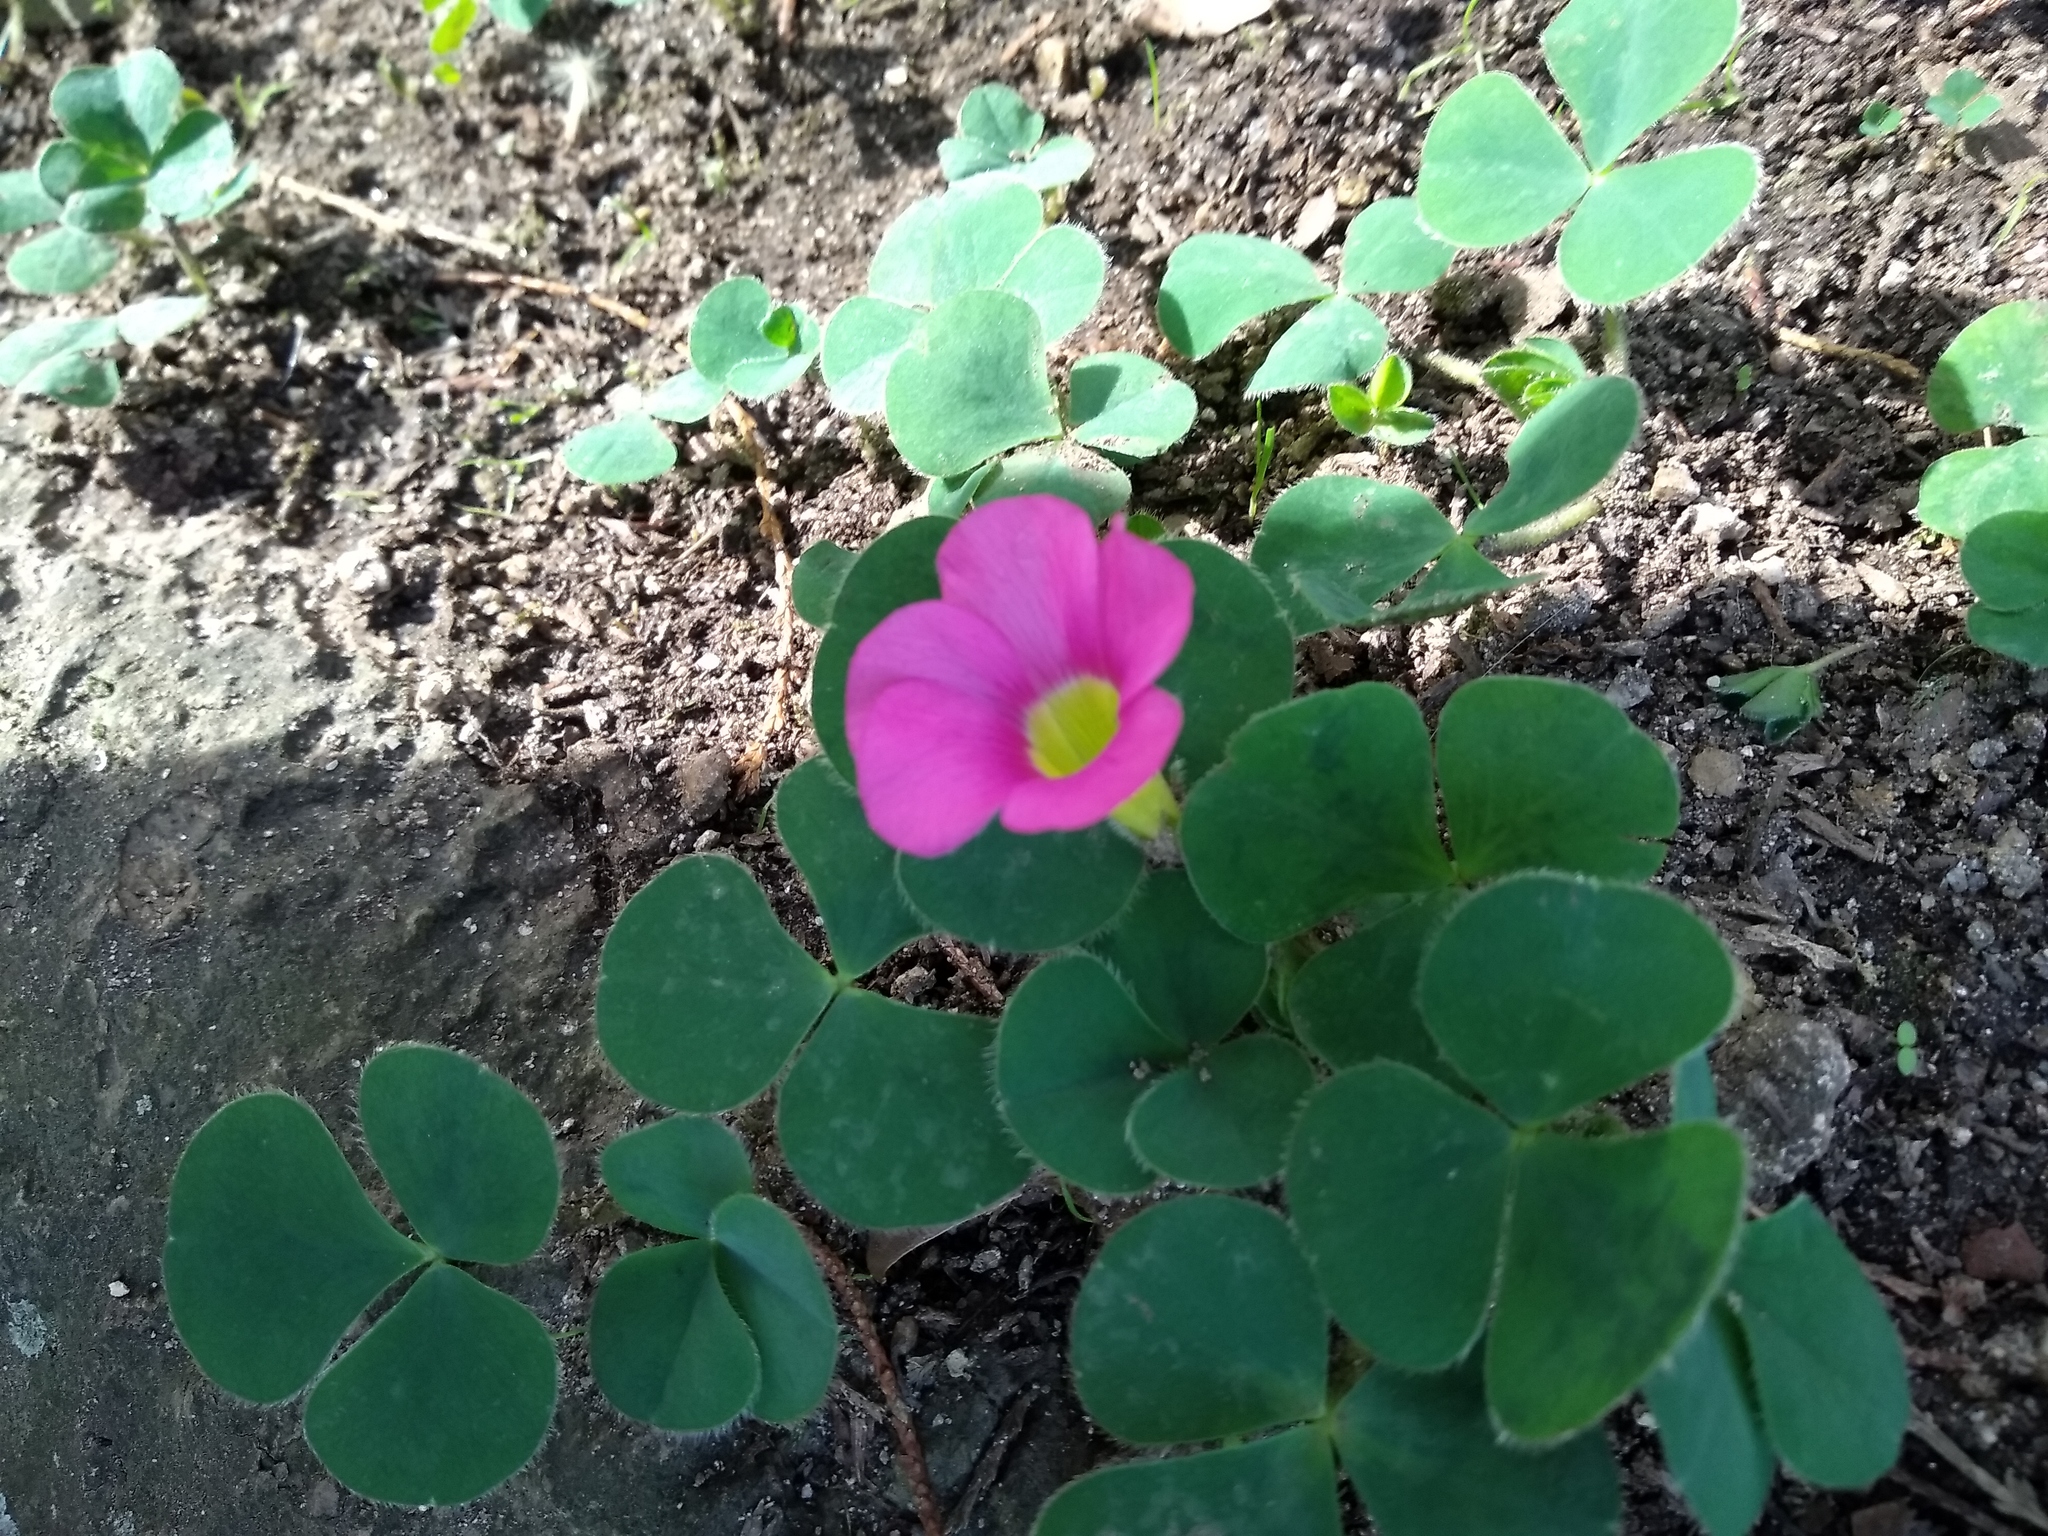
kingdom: Plantae
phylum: Tracheophyta
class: Magnoliopsida
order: Oxalidales
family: Oxalidaceae
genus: Oxalis
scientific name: Oxalis purpurea
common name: Purple woodsorrel
